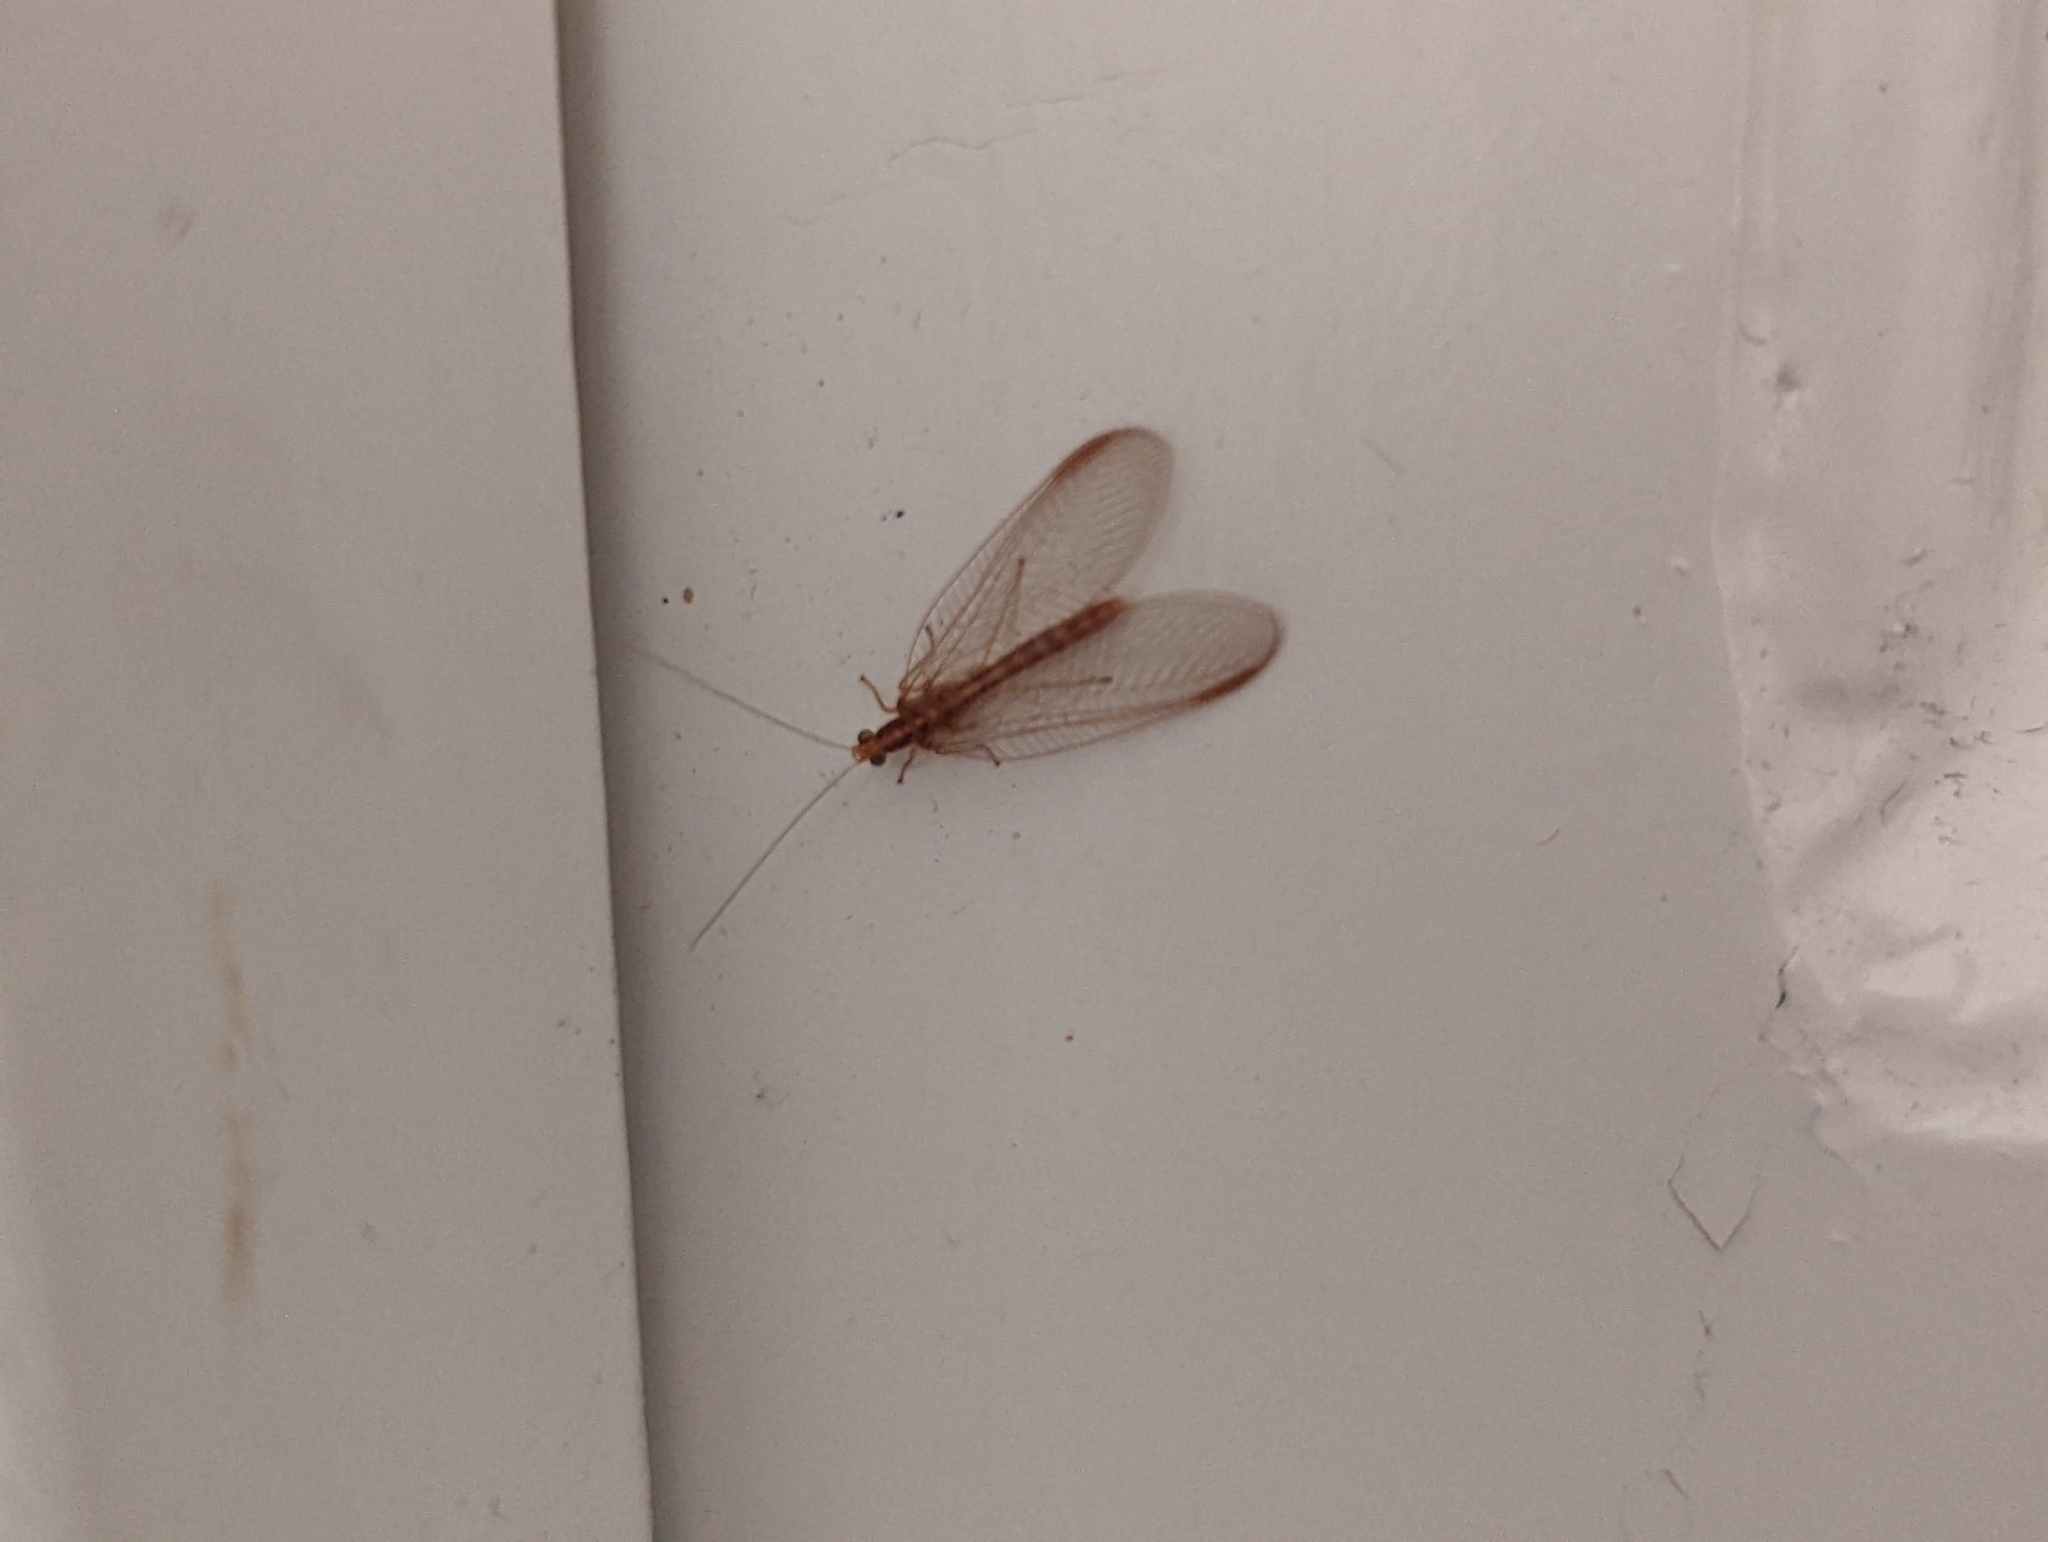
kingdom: Animalia
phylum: Arthropoda
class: Insecta
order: Neuroptera
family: Chrysopidae
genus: Chrysoperla
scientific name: Chrysoperla
